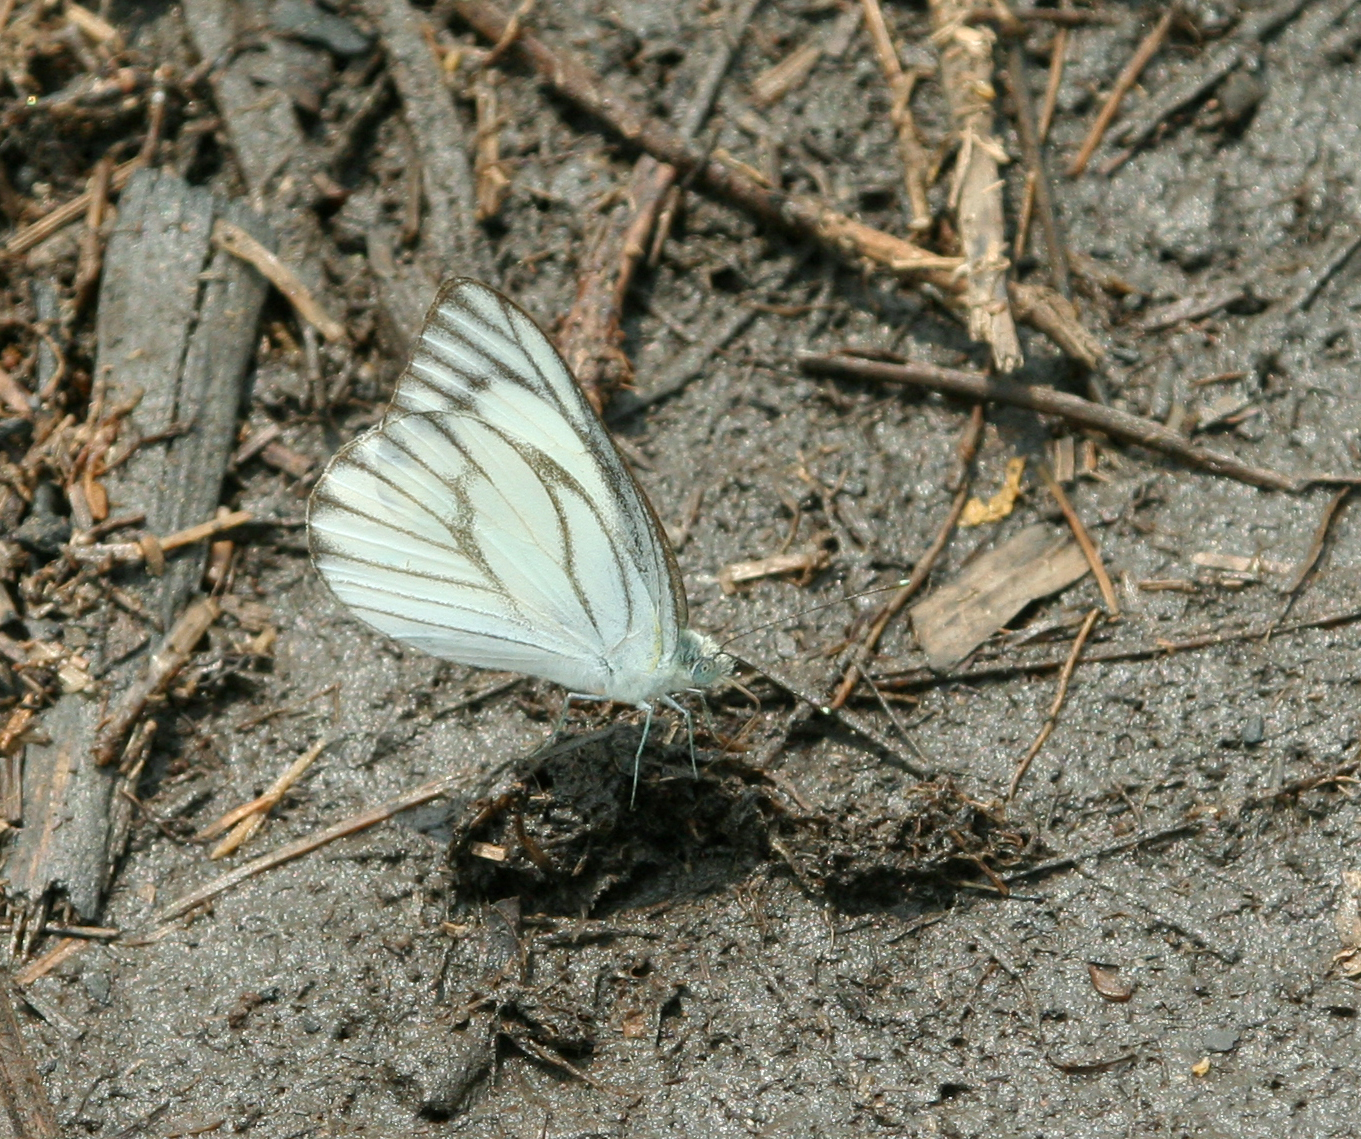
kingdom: Animalia
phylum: Arthropoda
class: Insecta
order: Lepidoptera
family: Pieridae
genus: Appias
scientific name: Appias libythea
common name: Striped albatross
